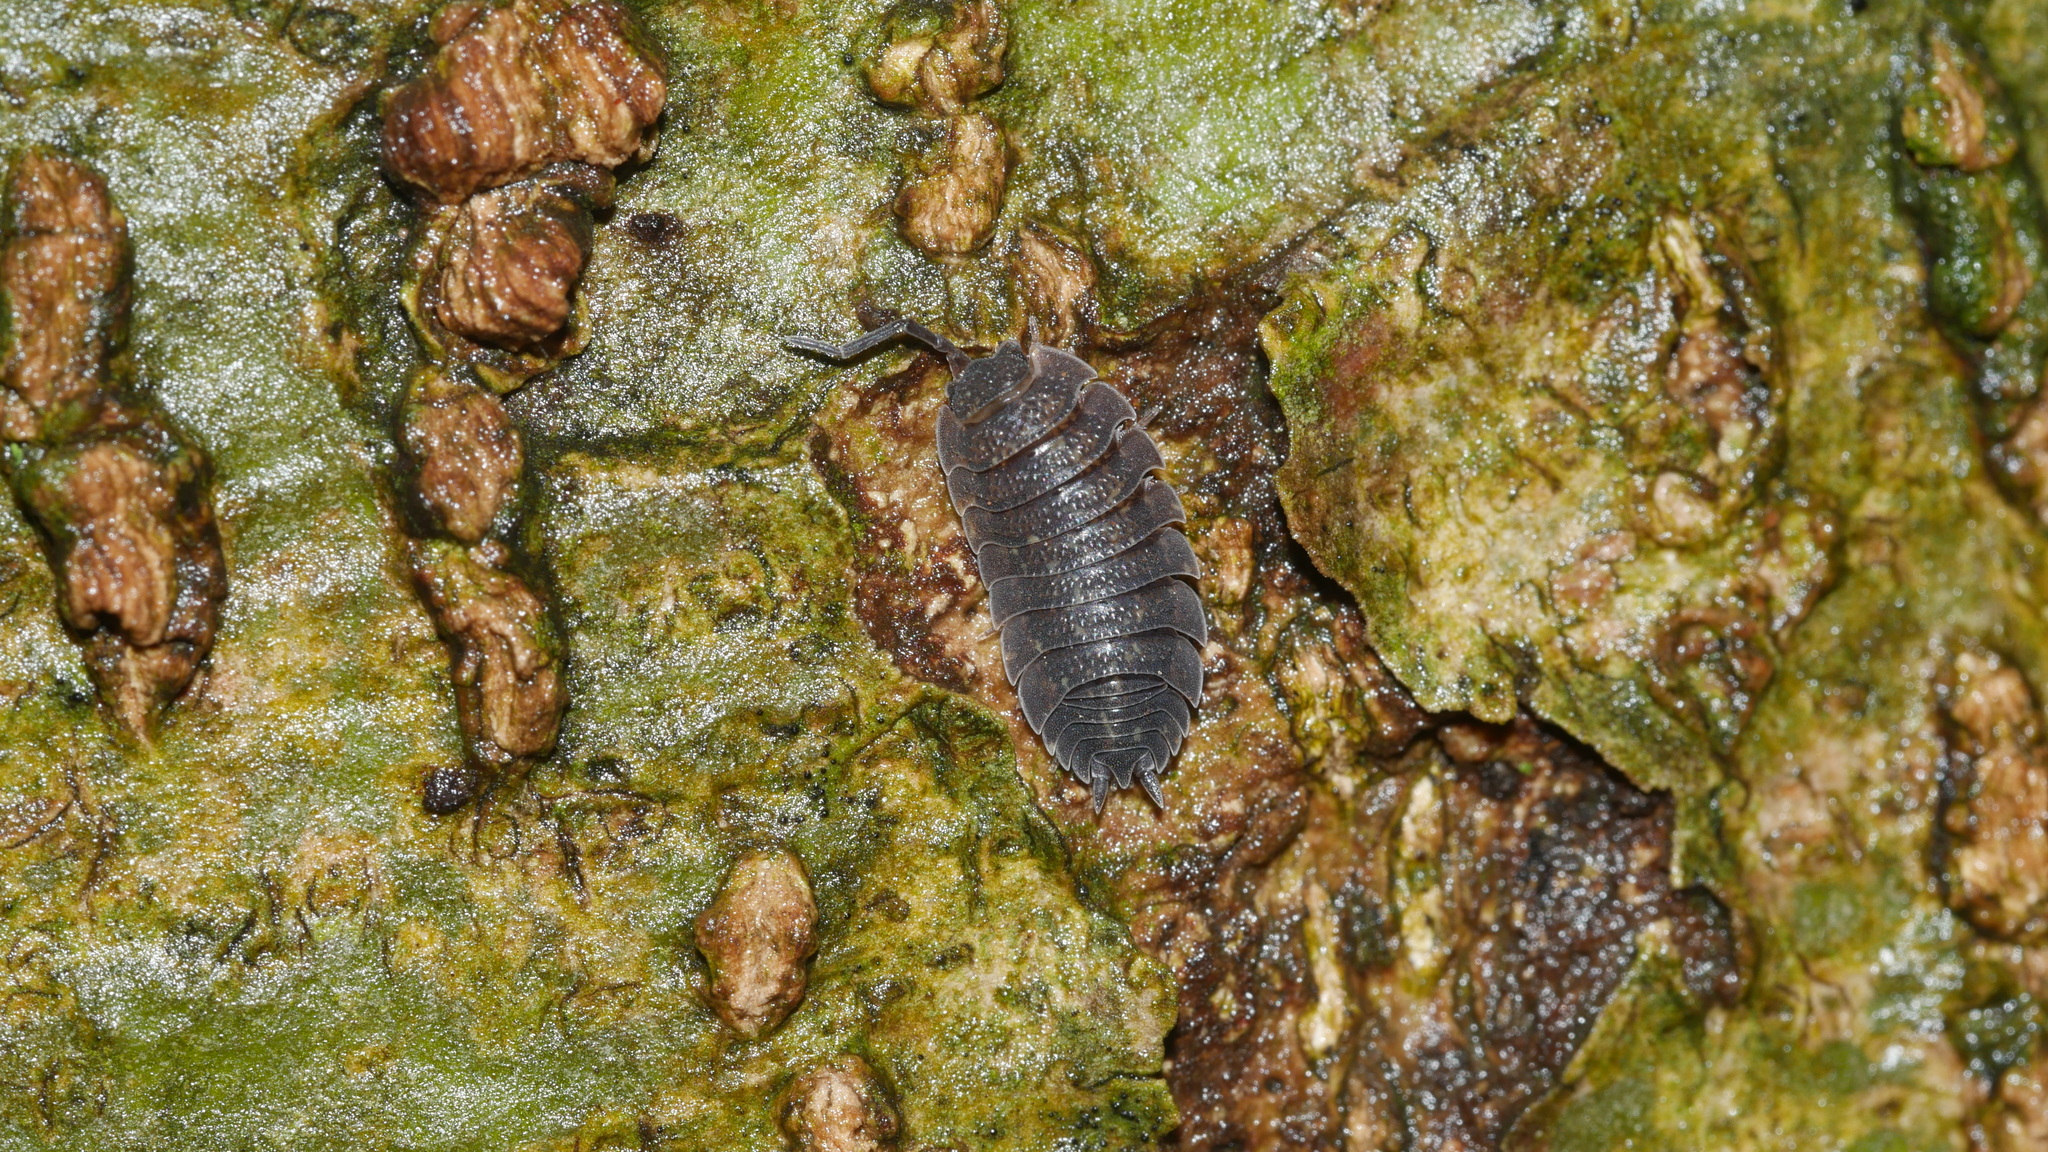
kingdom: Animalia
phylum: Arthropoda
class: Malacostraca
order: Isopoda
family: Porcellionidae
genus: Porcellio
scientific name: Porcellio scaber
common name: Common rough woodlouse
